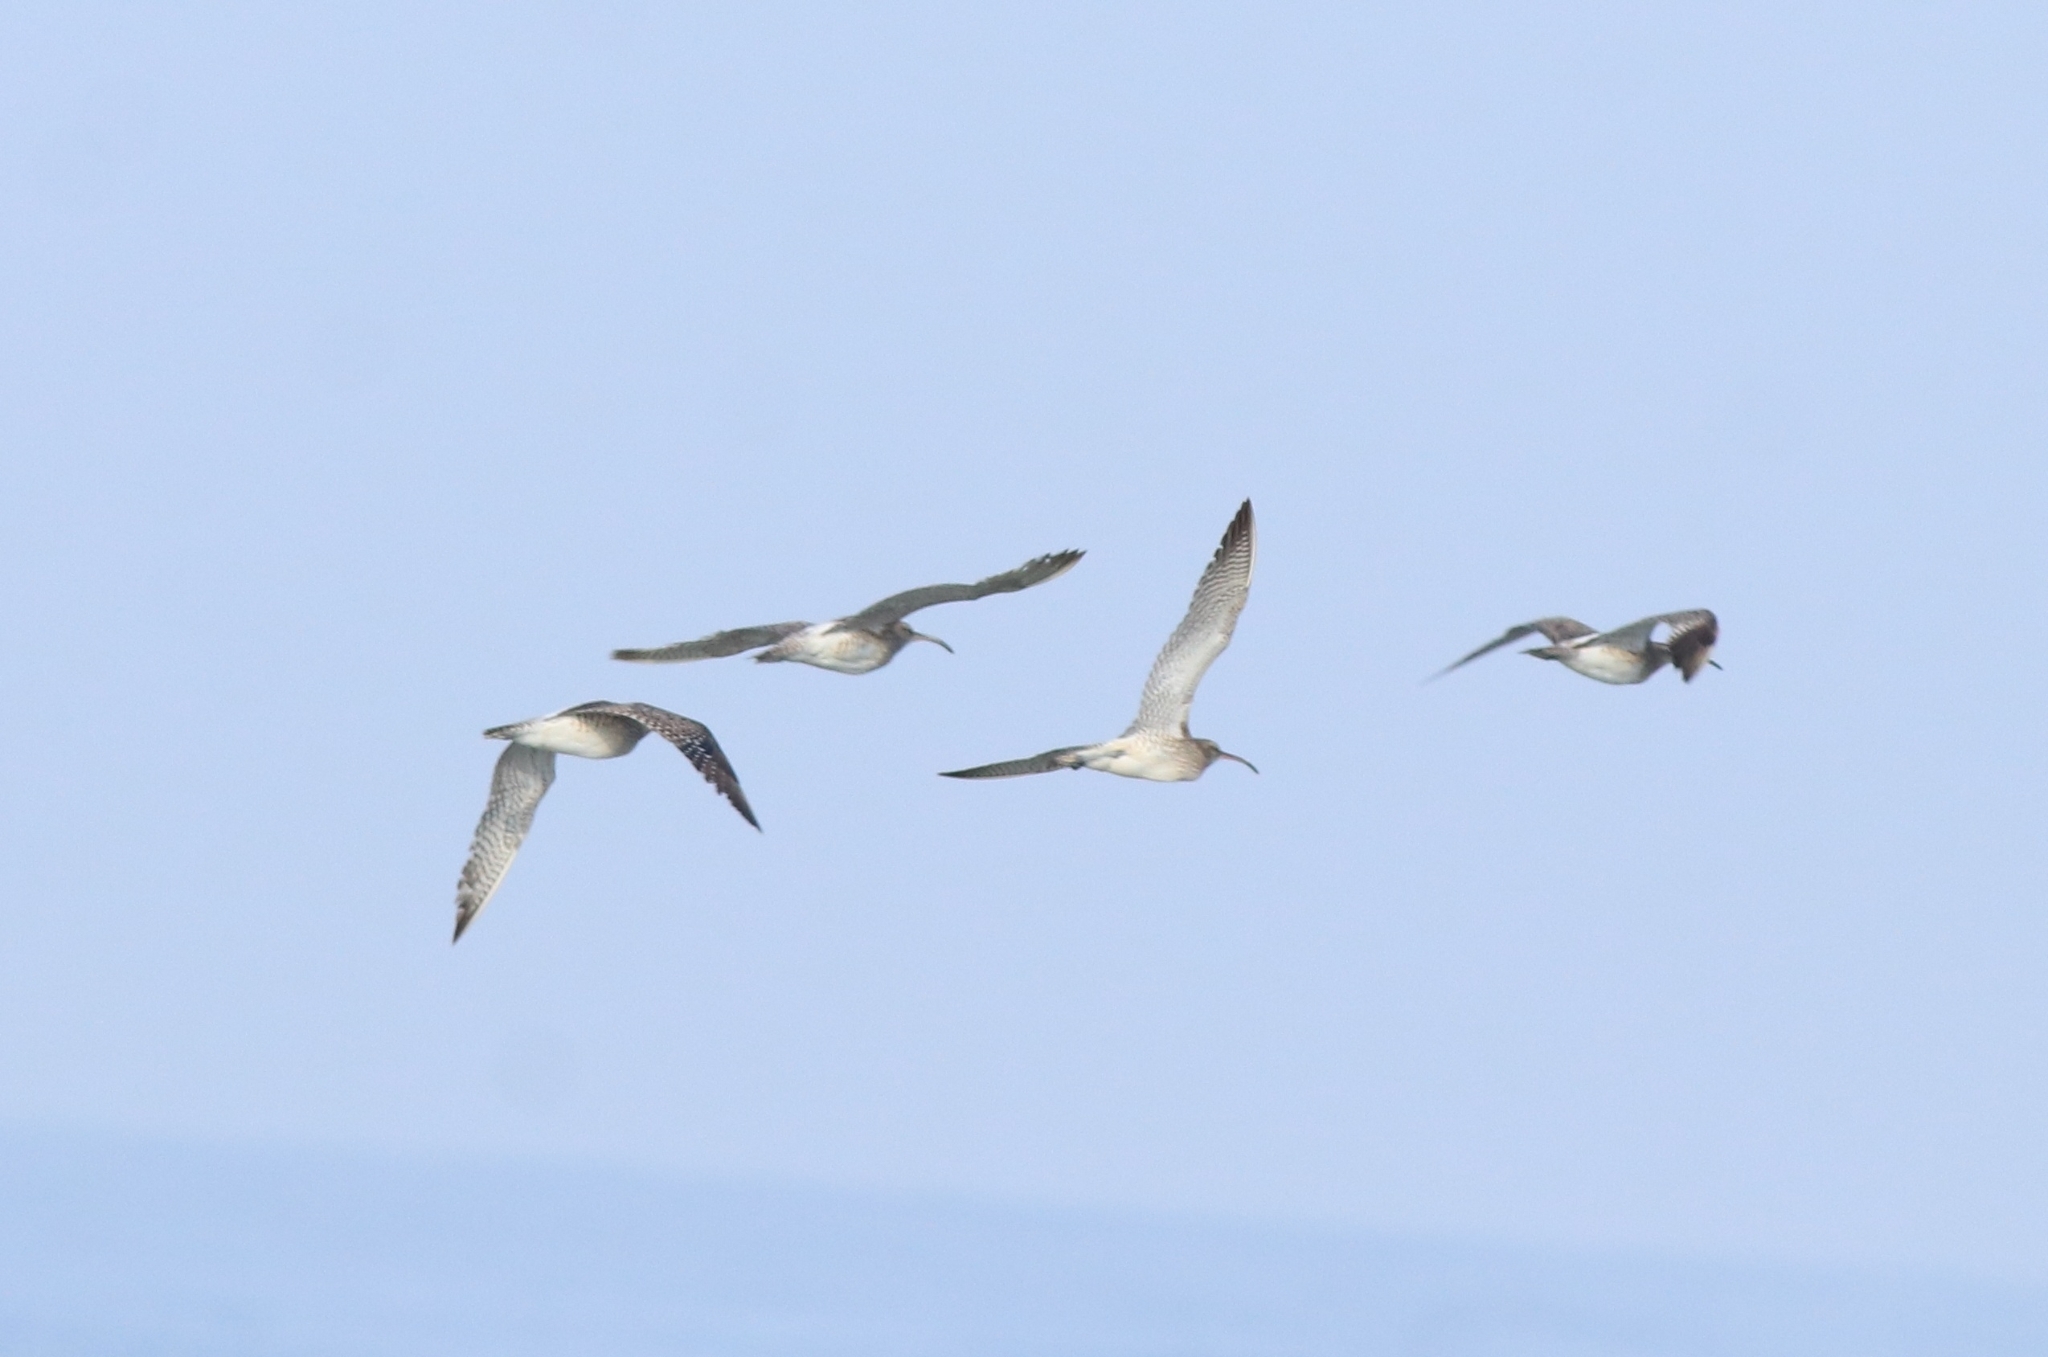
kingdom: Animalia
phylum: Chordata
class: Aves
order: Charadriiformes
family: Scolopacidae
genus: Numenius
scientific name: Numenius phaeopus
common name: Whimbrel
